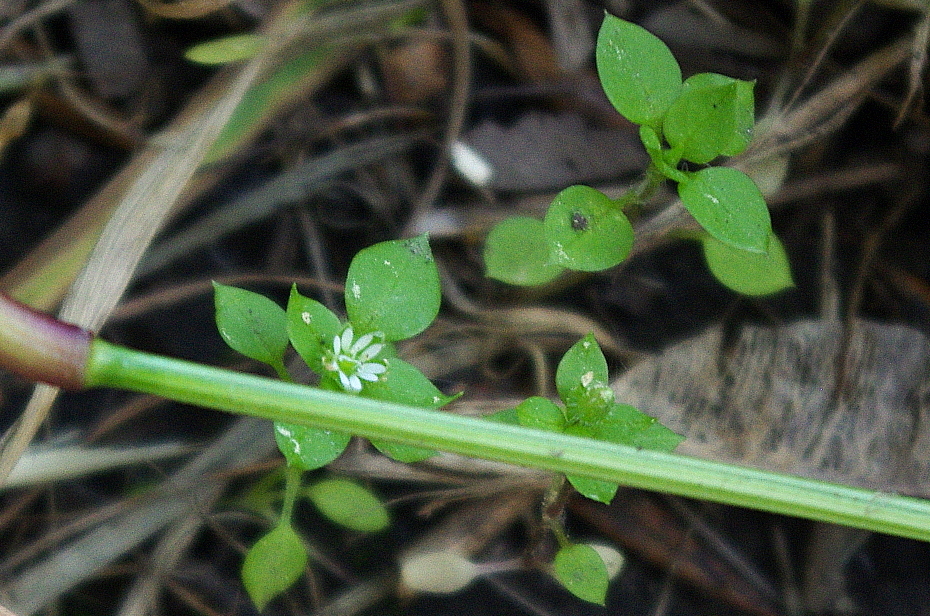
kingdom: Plantae
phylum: Tracheophyta
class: Magnoliopsida
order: Caryophyllales
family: Caryophyllaceae
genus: Stellaria
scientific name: Stellaria media
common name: Common chickweed
